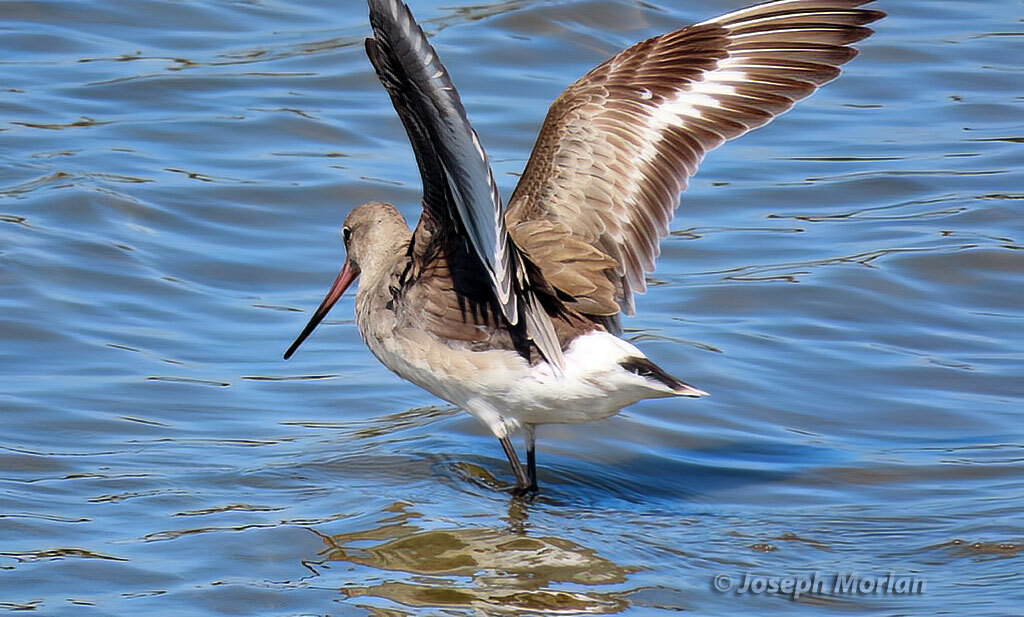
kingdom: Animalia
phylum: Chordata
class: Aves
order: Charadriiformes
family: Scolopacidae
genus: Limosa
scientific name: Limosa haemastica
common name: Hudsonian godwit
